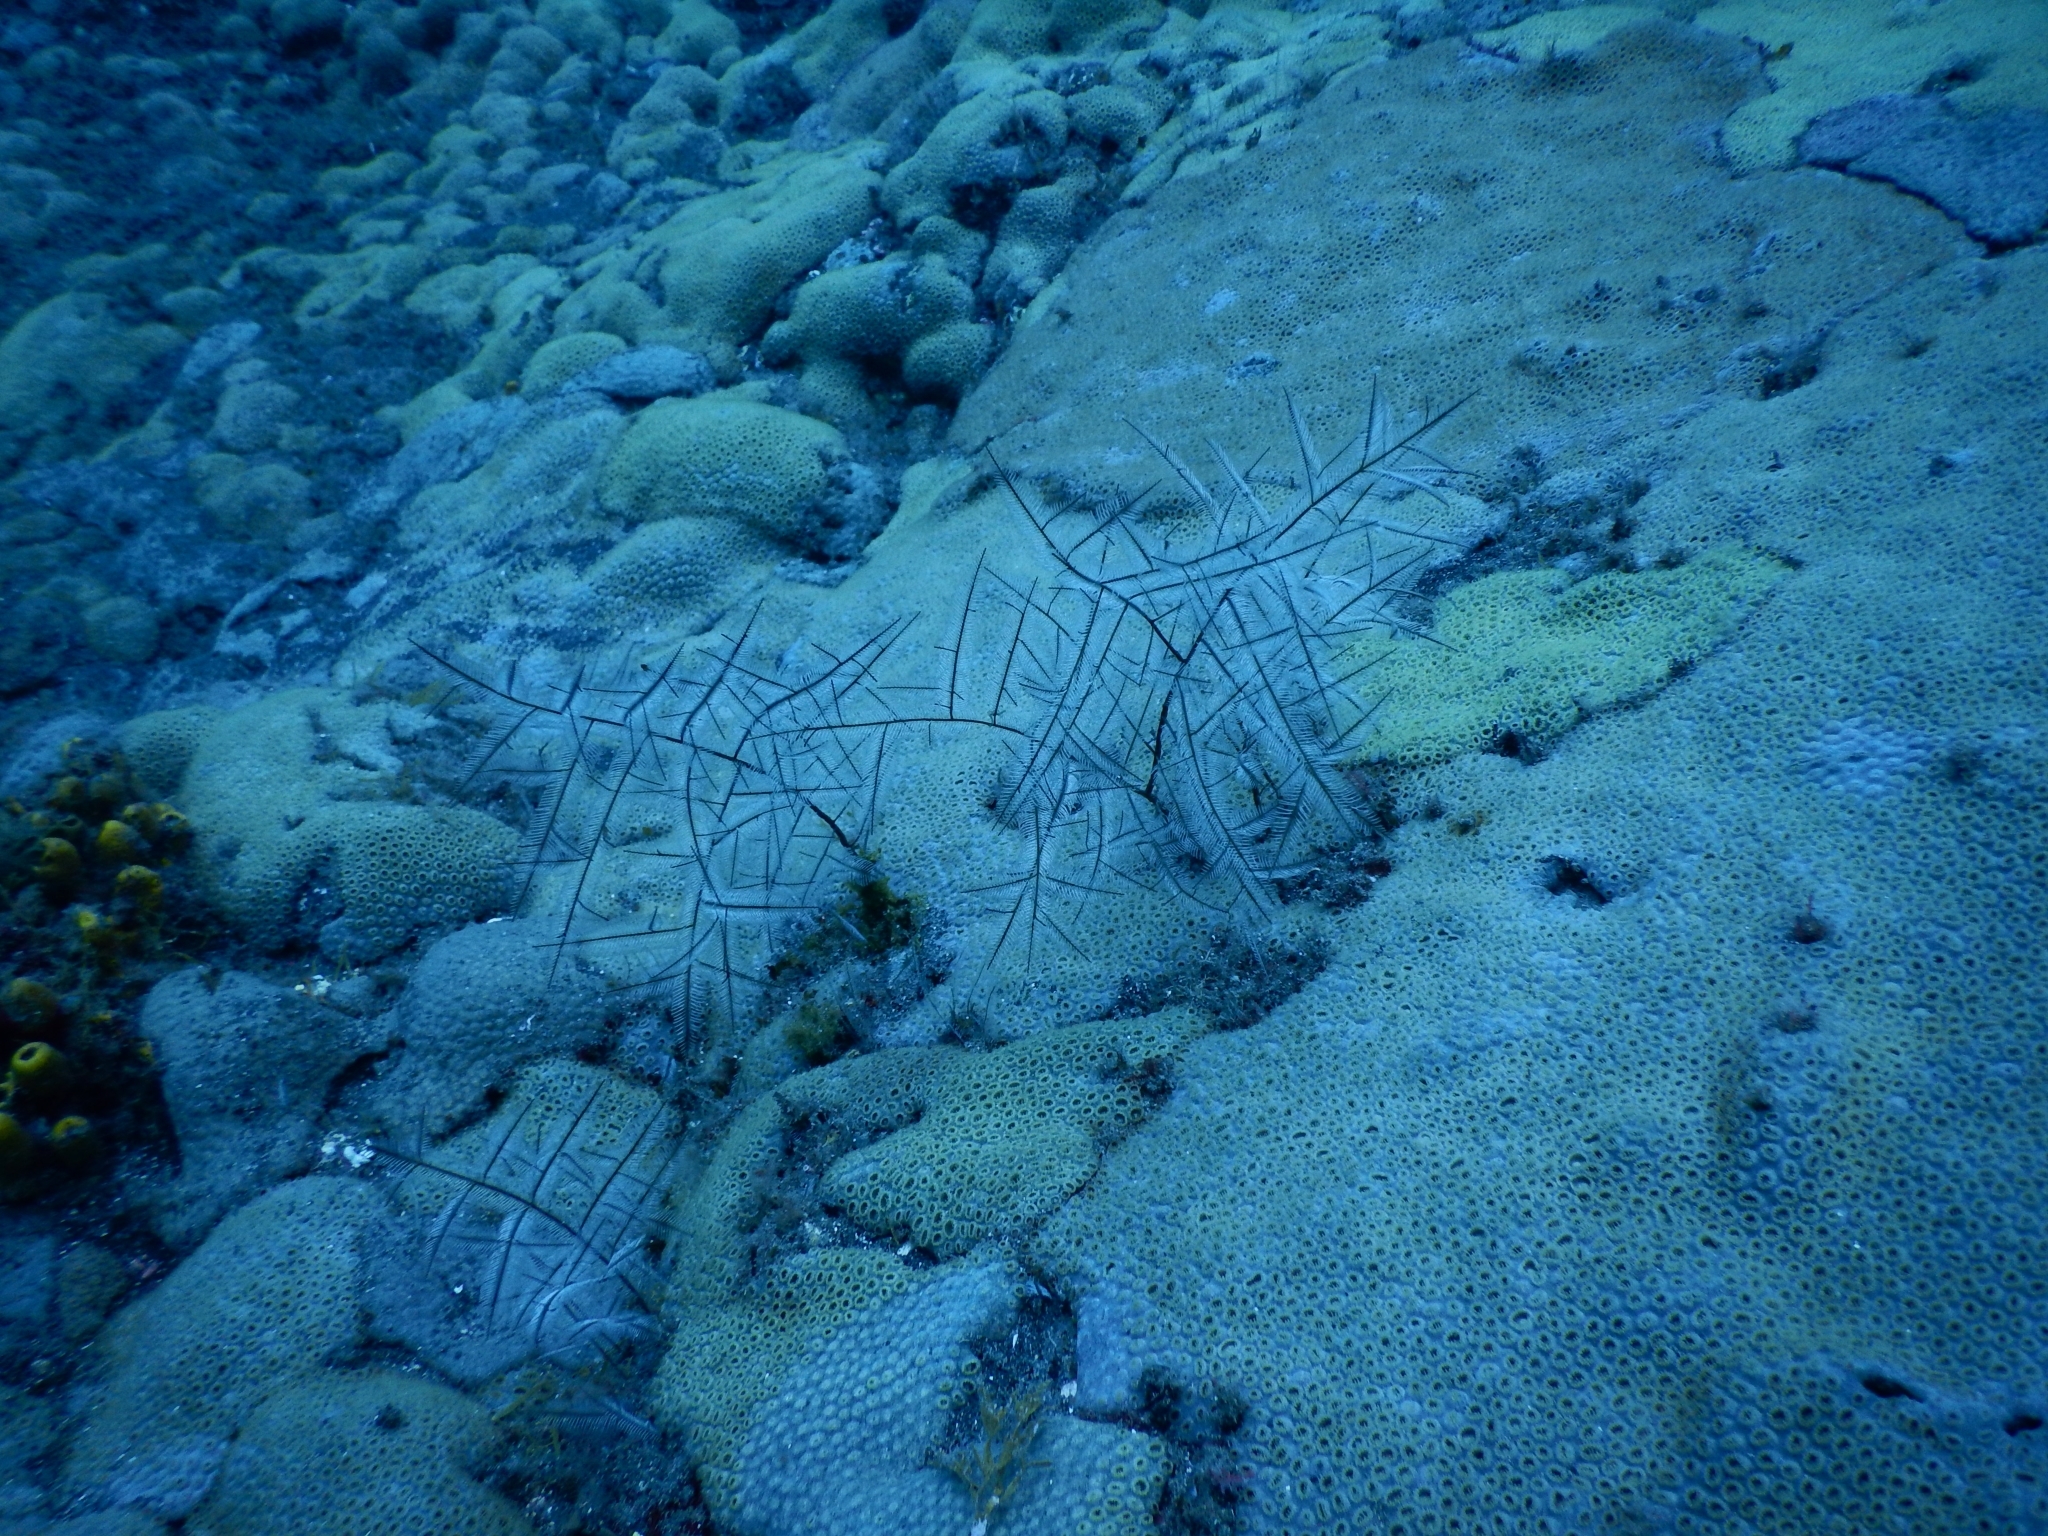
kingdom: Animalia
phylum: Cnidaria
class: Hydrozoa
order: Leptothecata
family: Aglaopheniidae
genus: Macrorhynchia
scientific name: Macrorhynchia philippina
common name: Stinging hydroid
